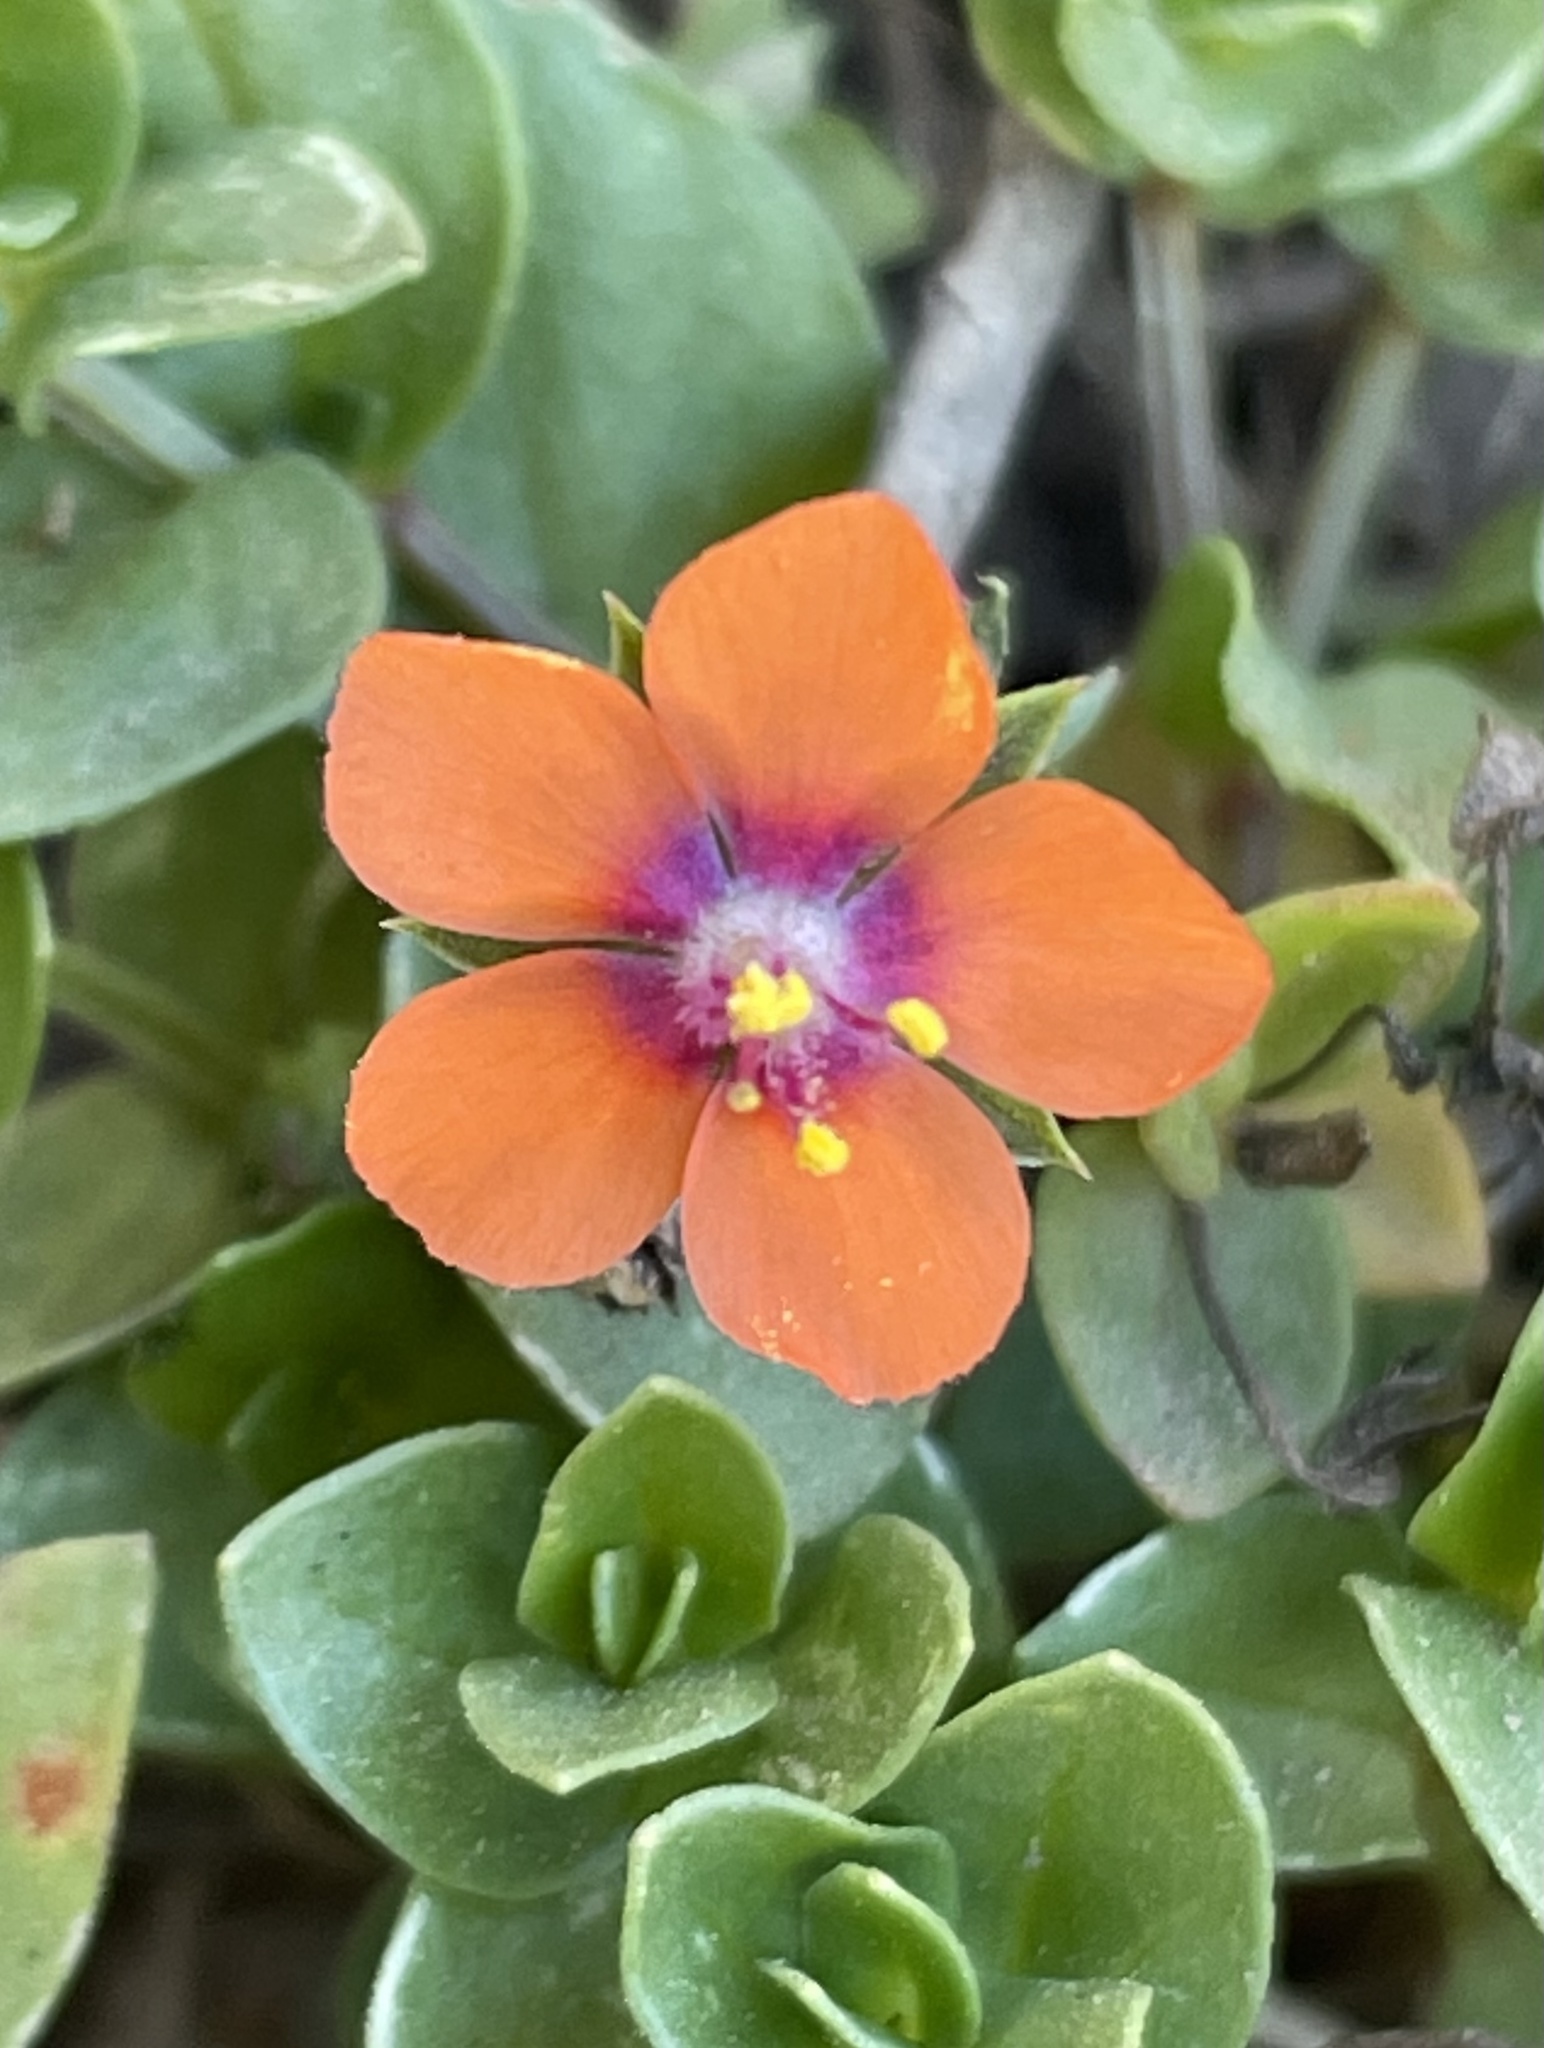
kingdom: Plantae
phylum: Tracheophyta
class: Magnoliopsida
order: Ericales
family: Primulaceae
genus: Lysimachia
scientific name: Lysimachia arvensis
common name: Scarlet pimpernel
